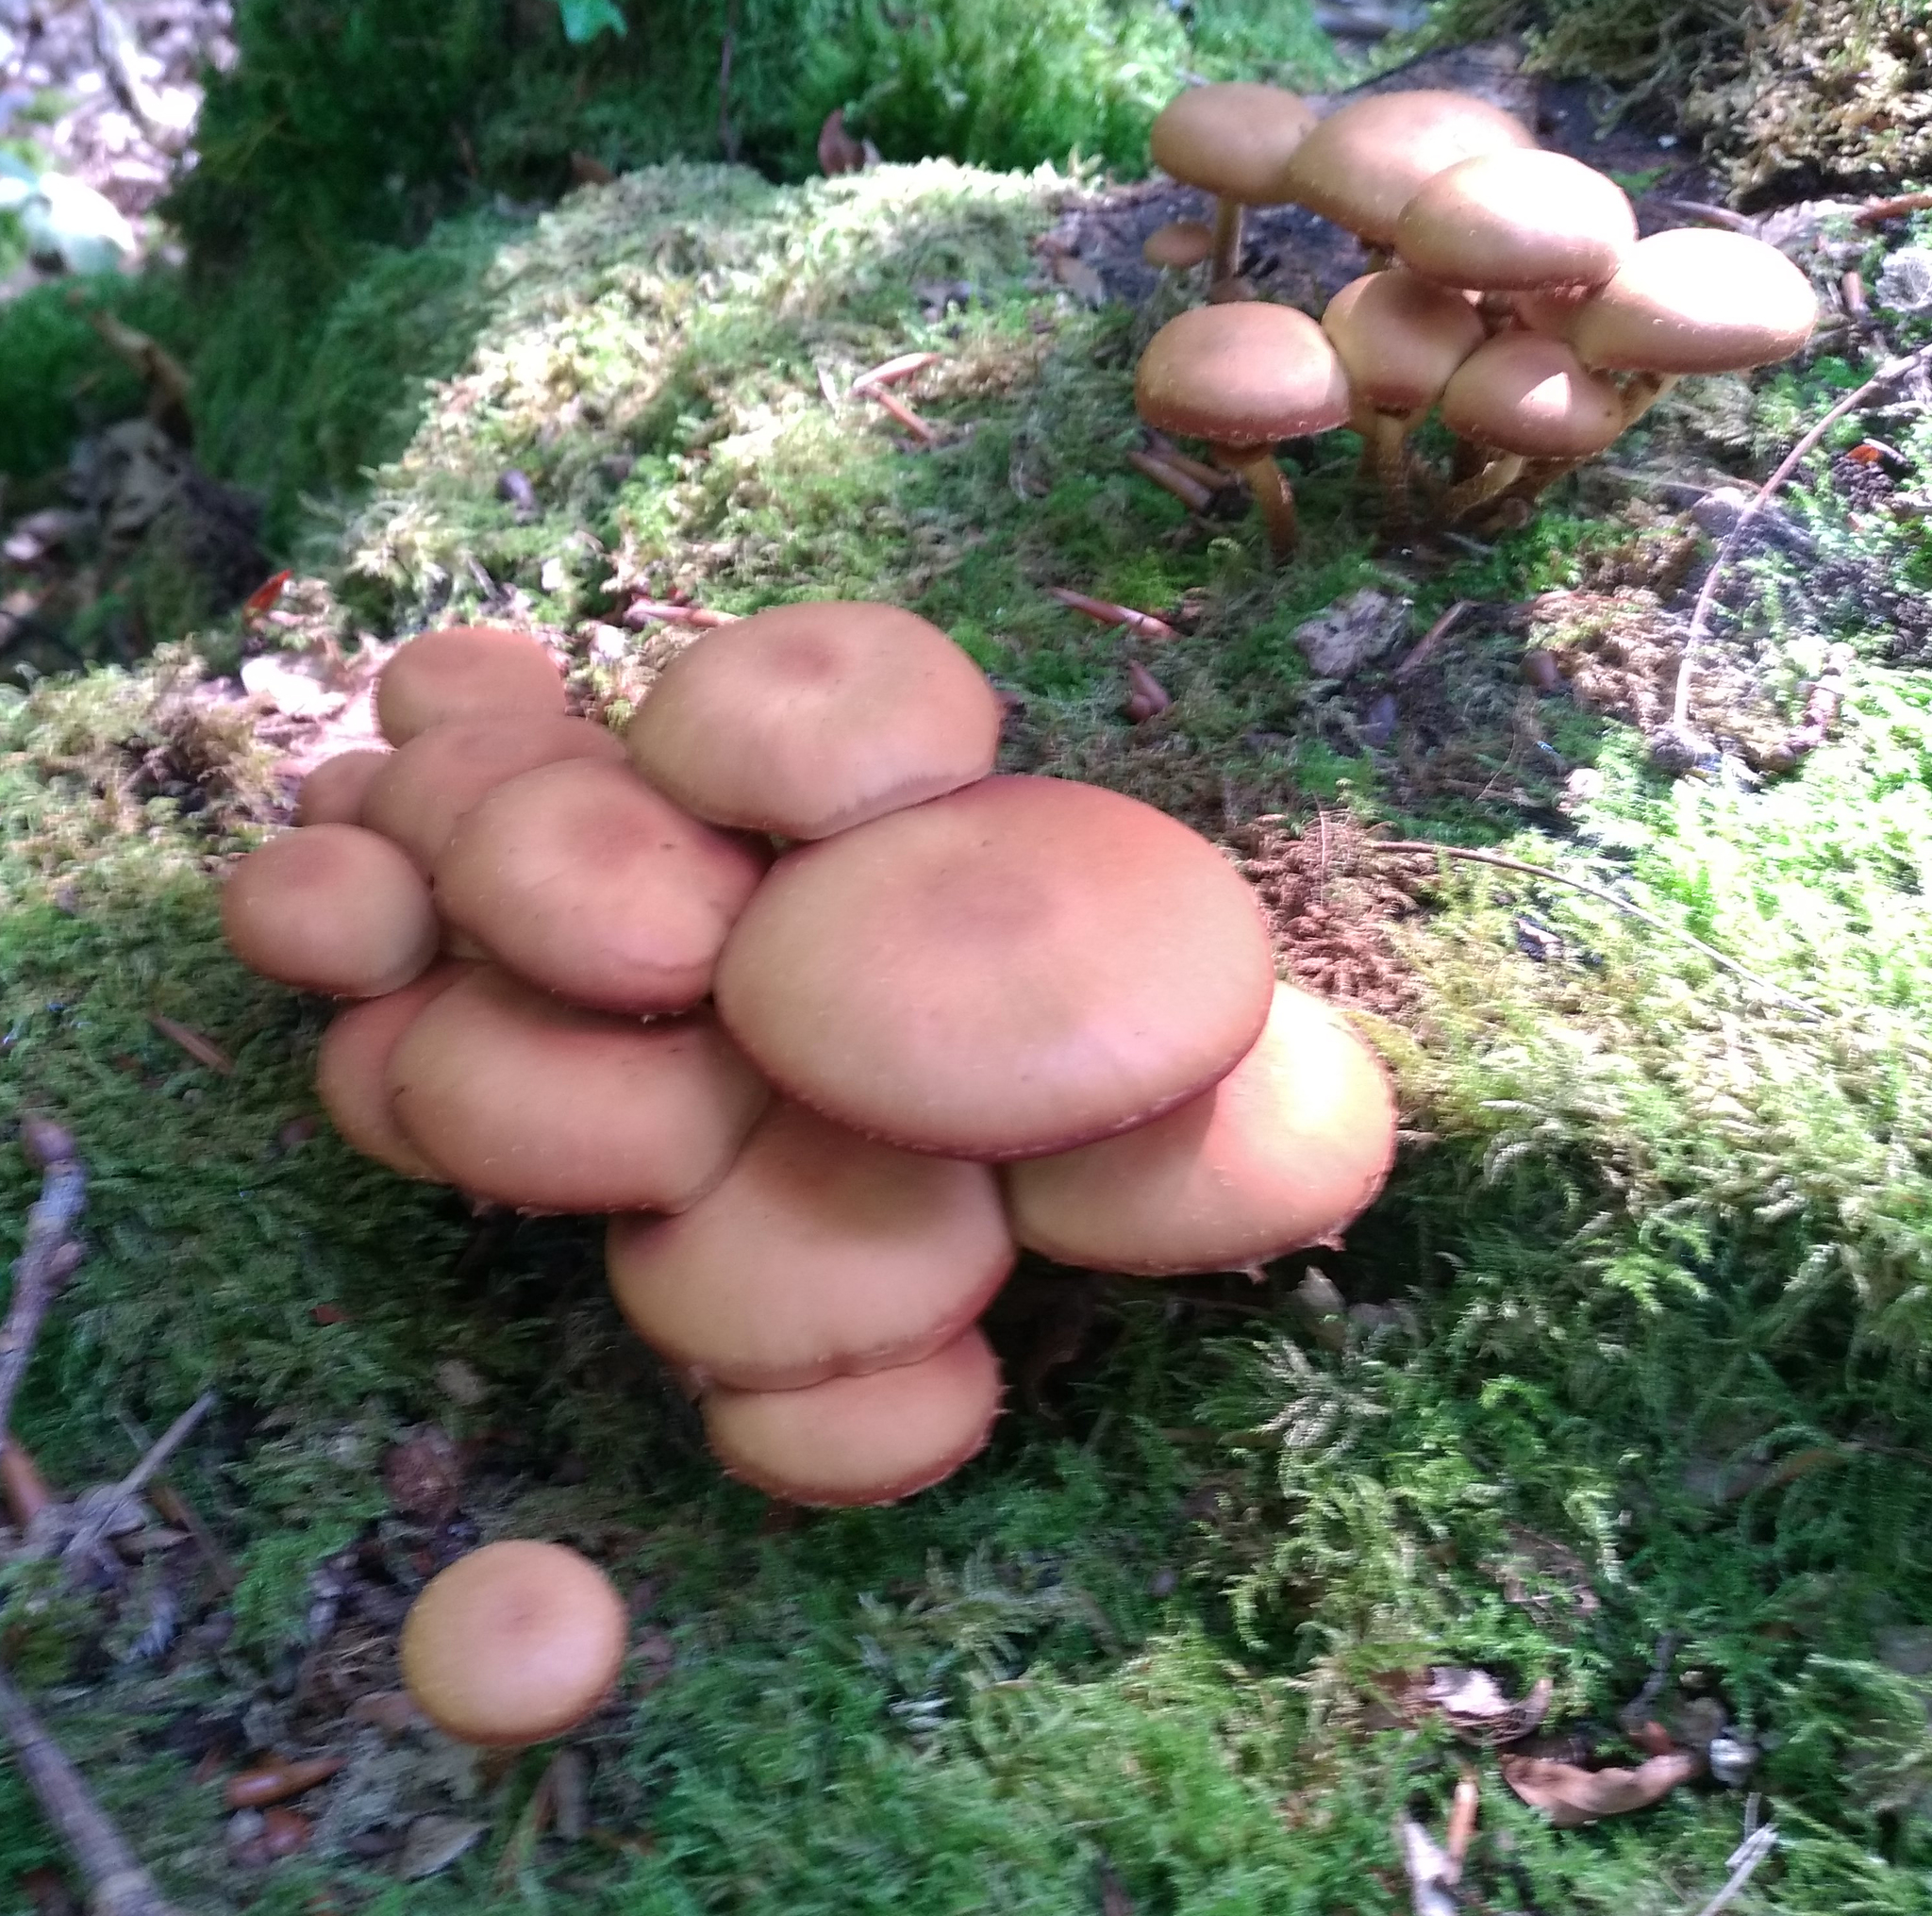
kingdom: Fungi
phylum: Basidiomycota
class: Agaricomycetes
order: Agaricales
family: Strophariaceae
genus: Kuehneromyces
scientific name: Kuehneromyces mutabilis
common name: Sheathed woodtuft
